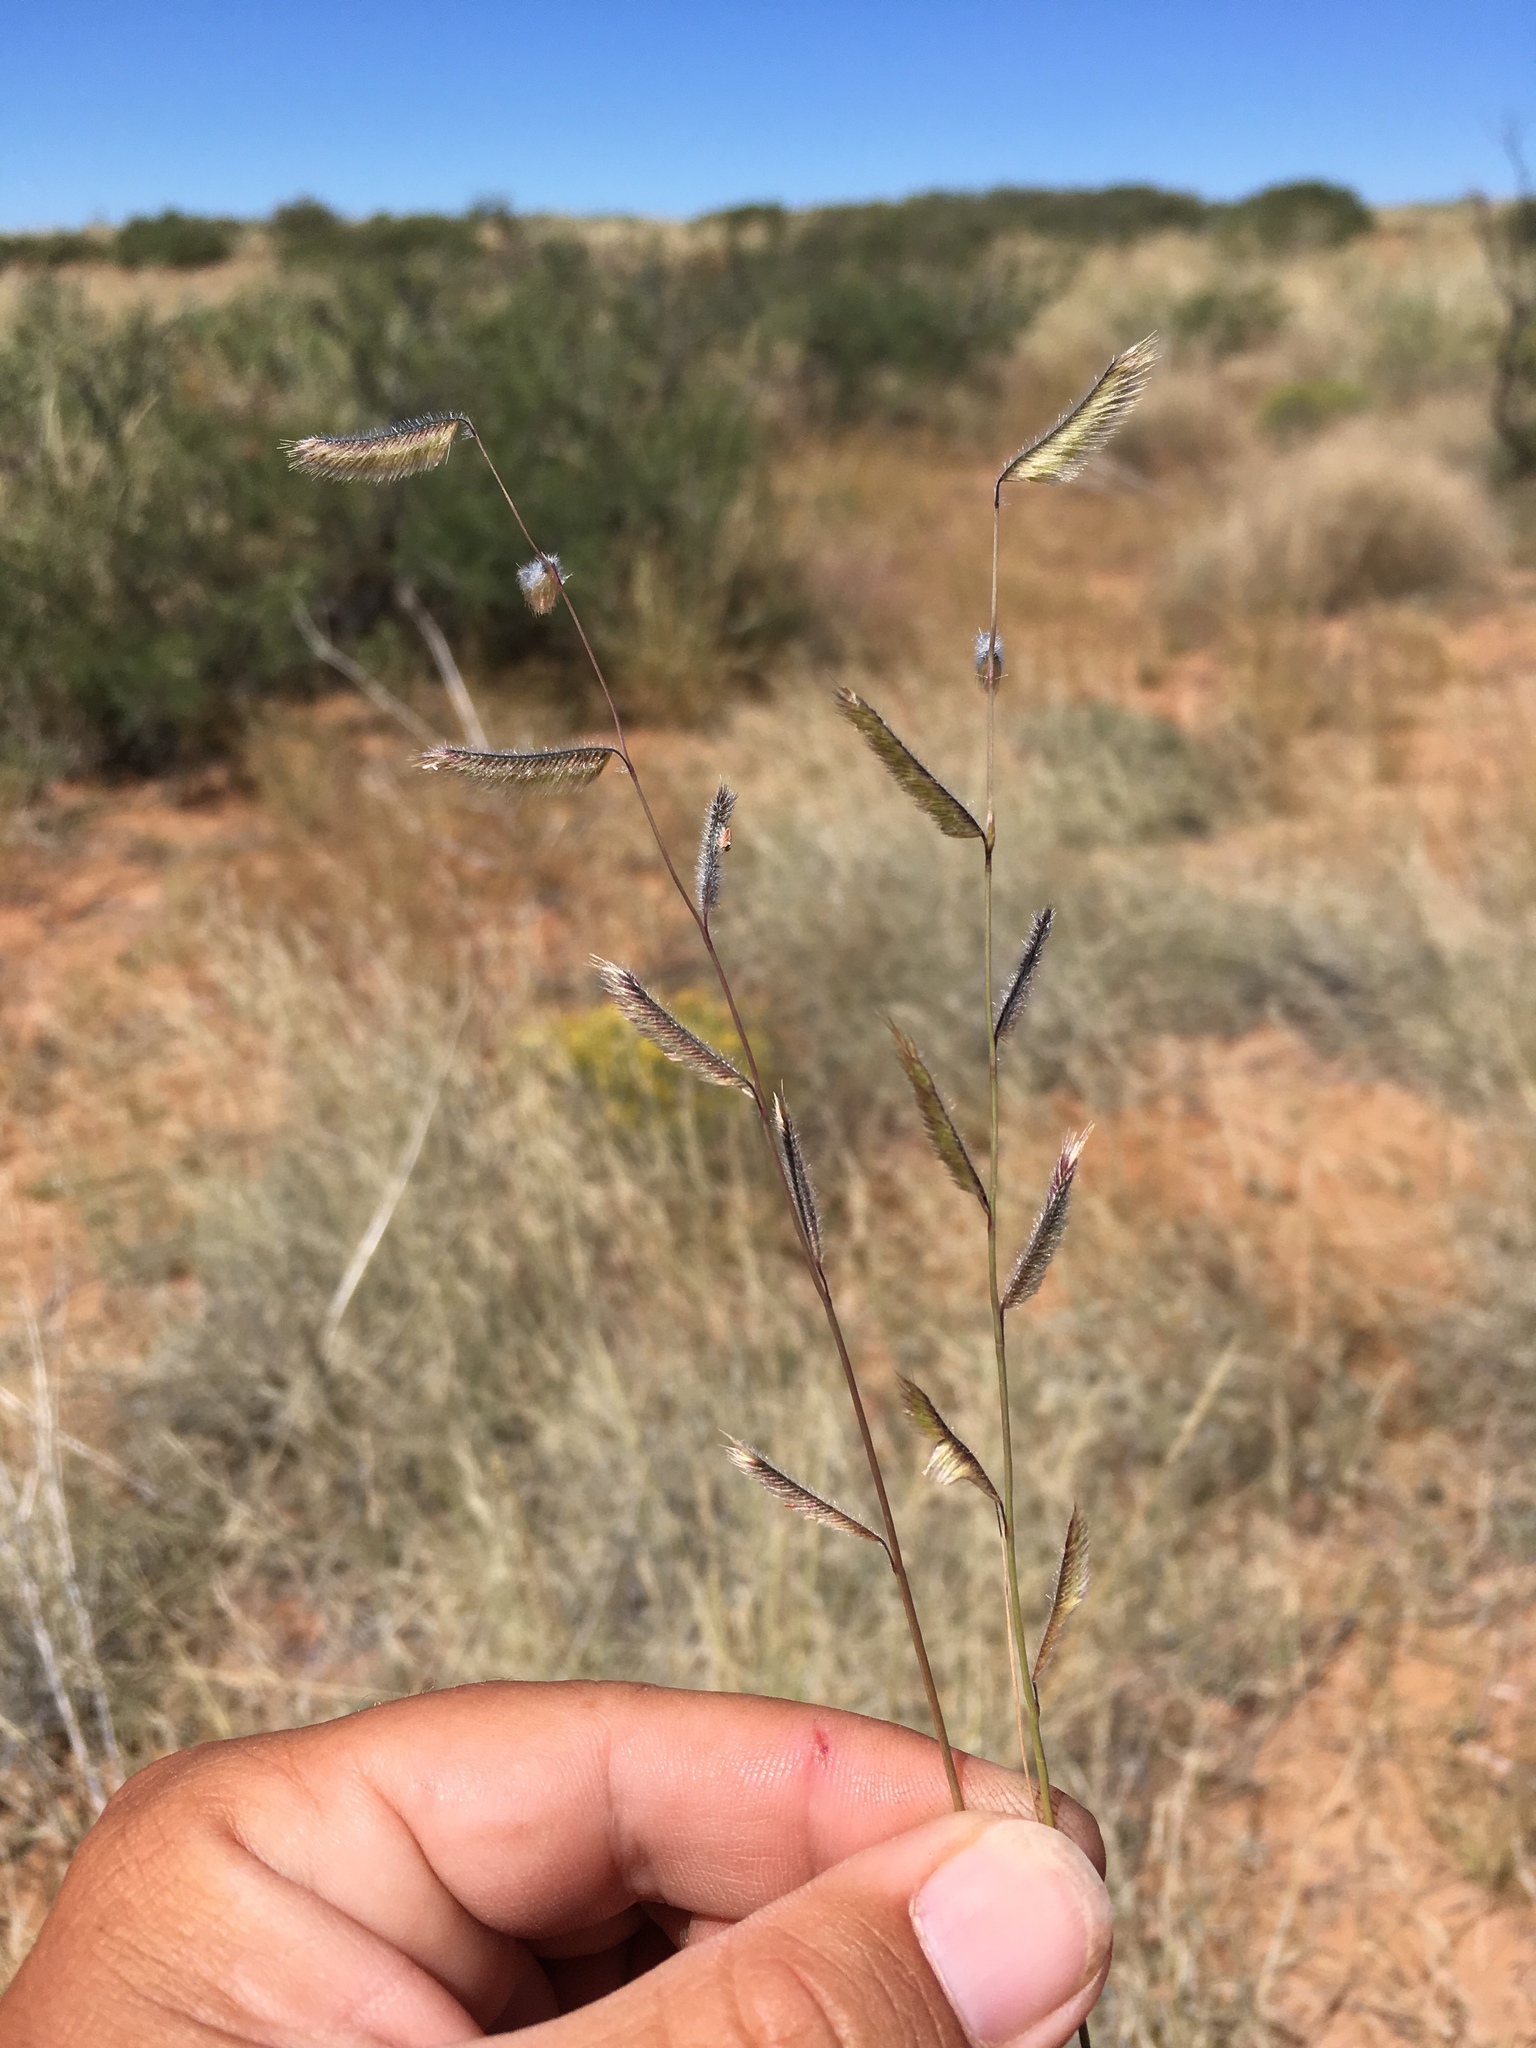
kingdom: Plantae
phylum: Tracheophyta
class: Liliopsida
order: Poales
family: Poaceae
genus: Bouteloua
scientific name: Bouteloua parryi
